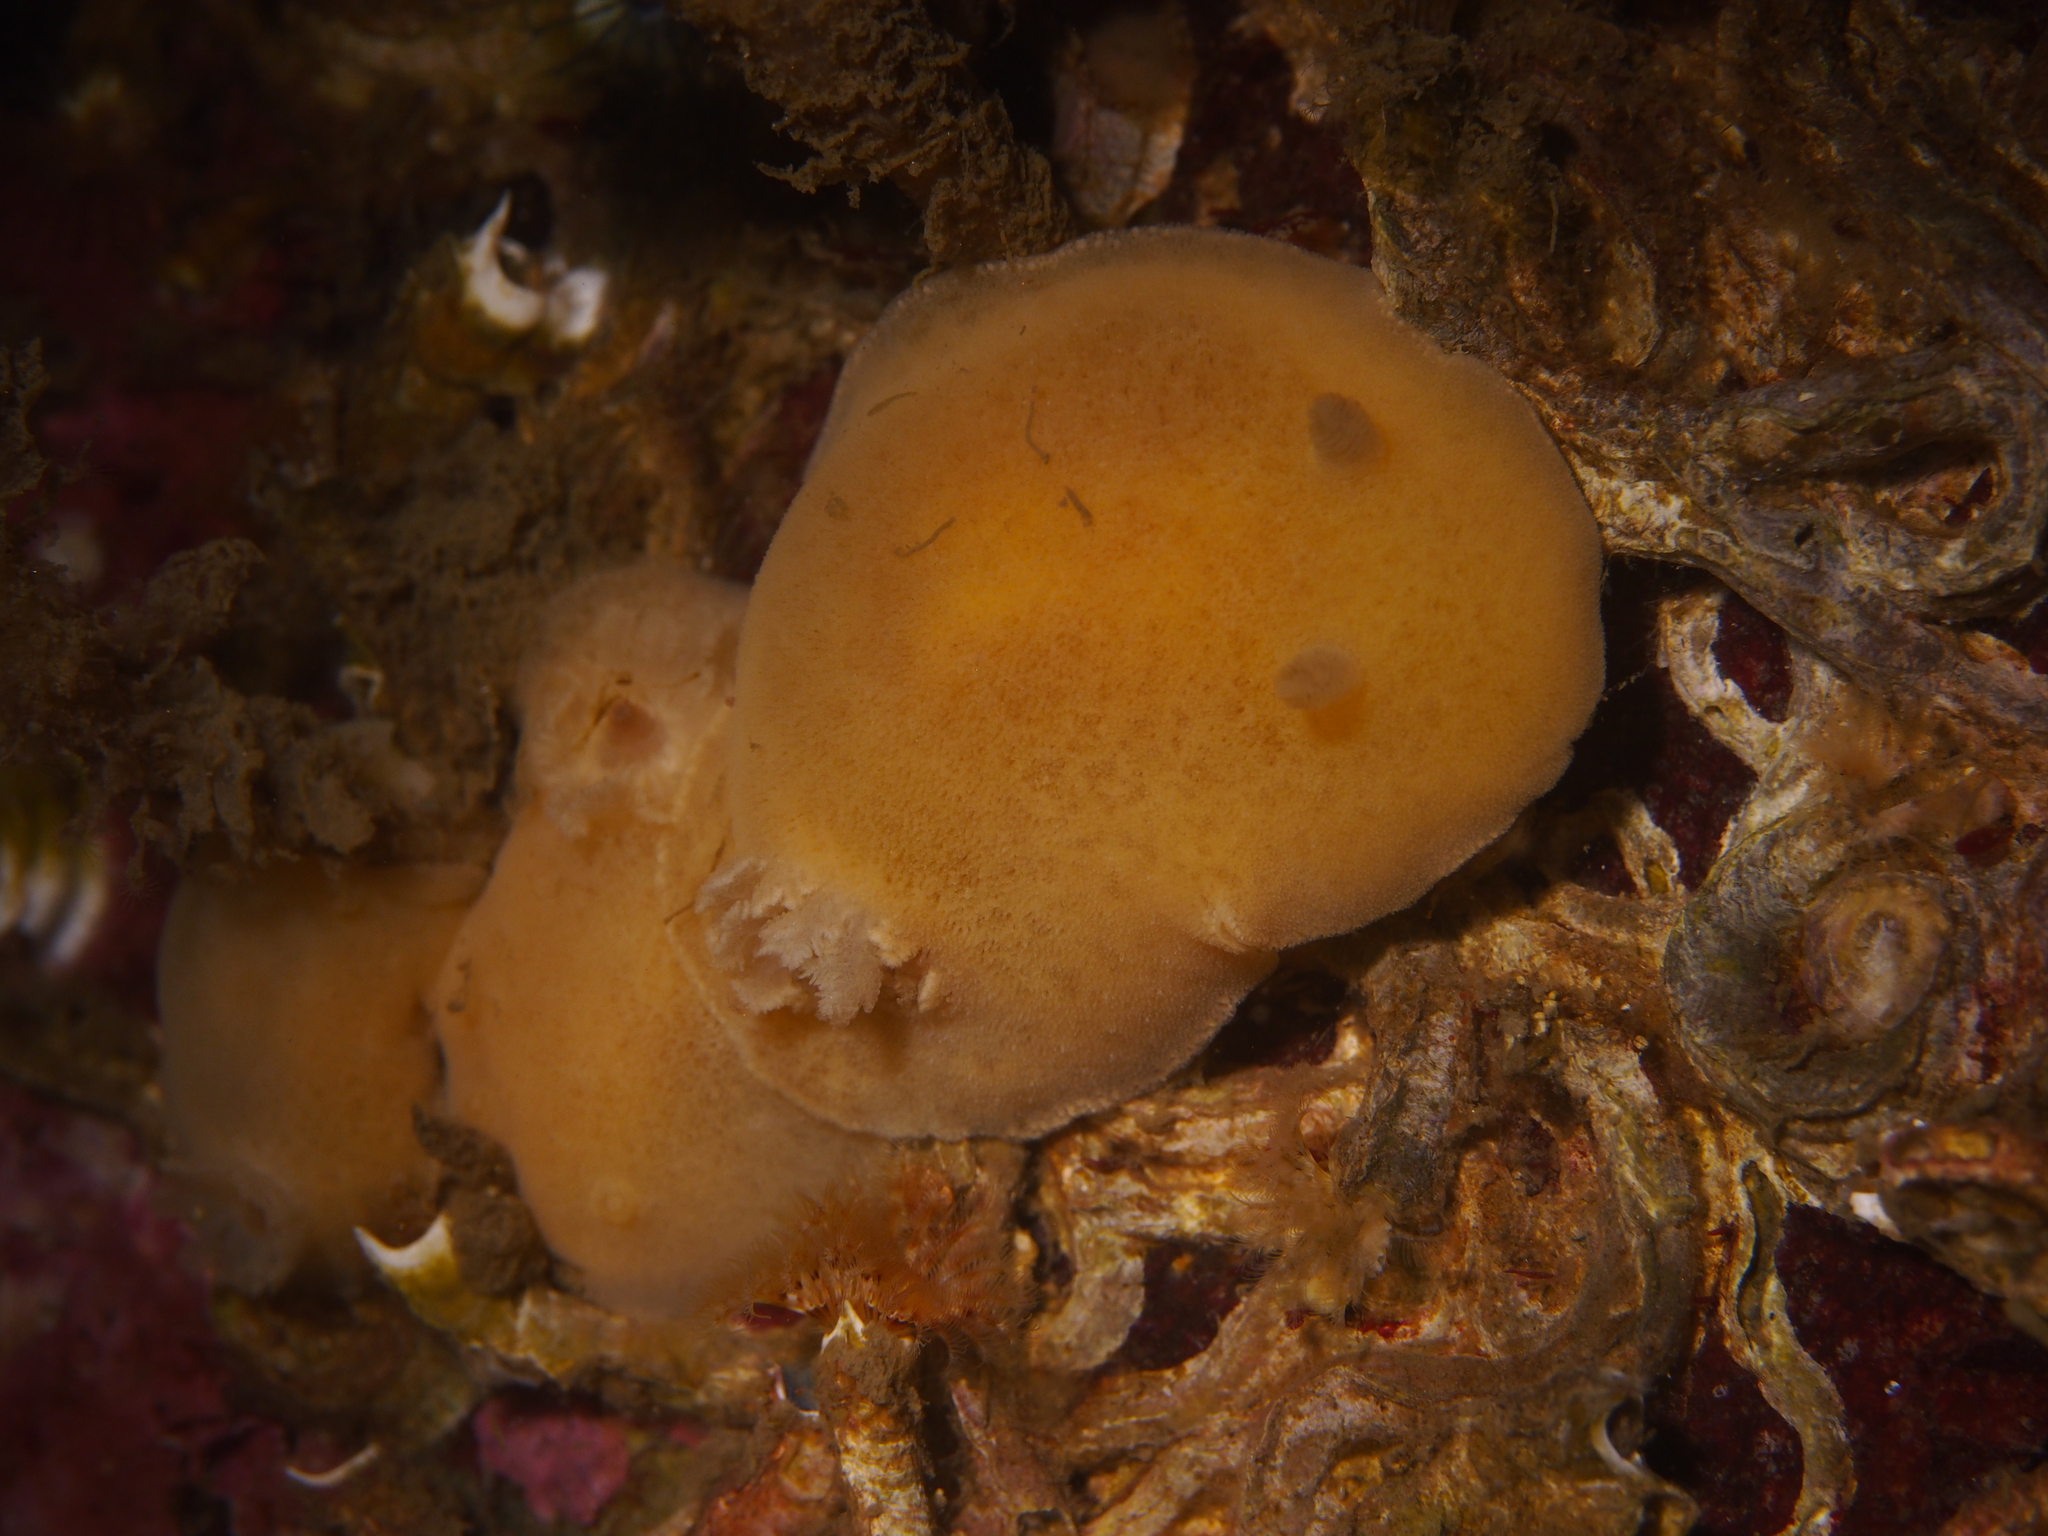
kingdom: Animalia
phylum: Mollusca
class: Gastropoda
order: Nudibranchia
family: Discodorididae
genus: Jorunna
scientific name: Jorunna tomentosa
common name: Grey sea slug
